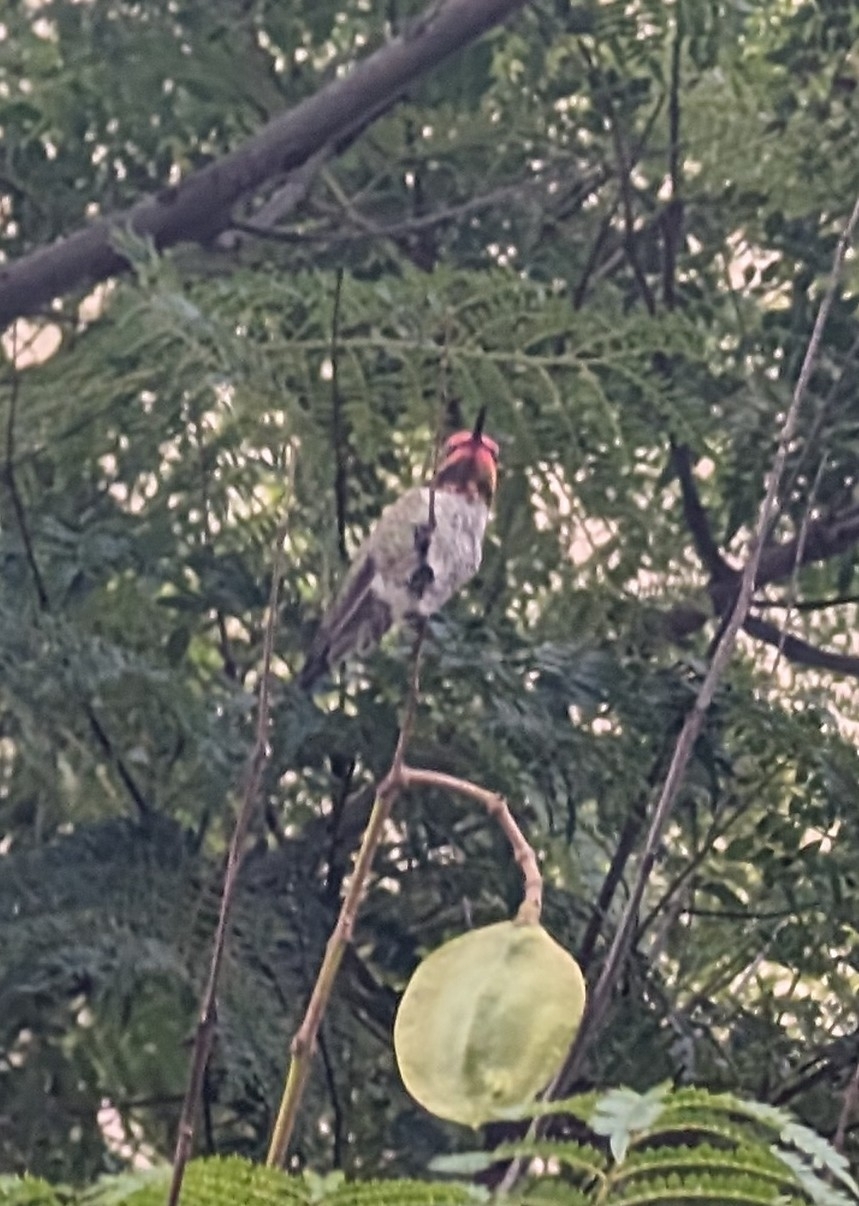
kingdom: Animalia
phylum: Chordata
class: Aves
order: Apodiformes
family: Trochilidae
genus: Calypte
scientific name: Calypte anna
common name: Anna's hummingbird
